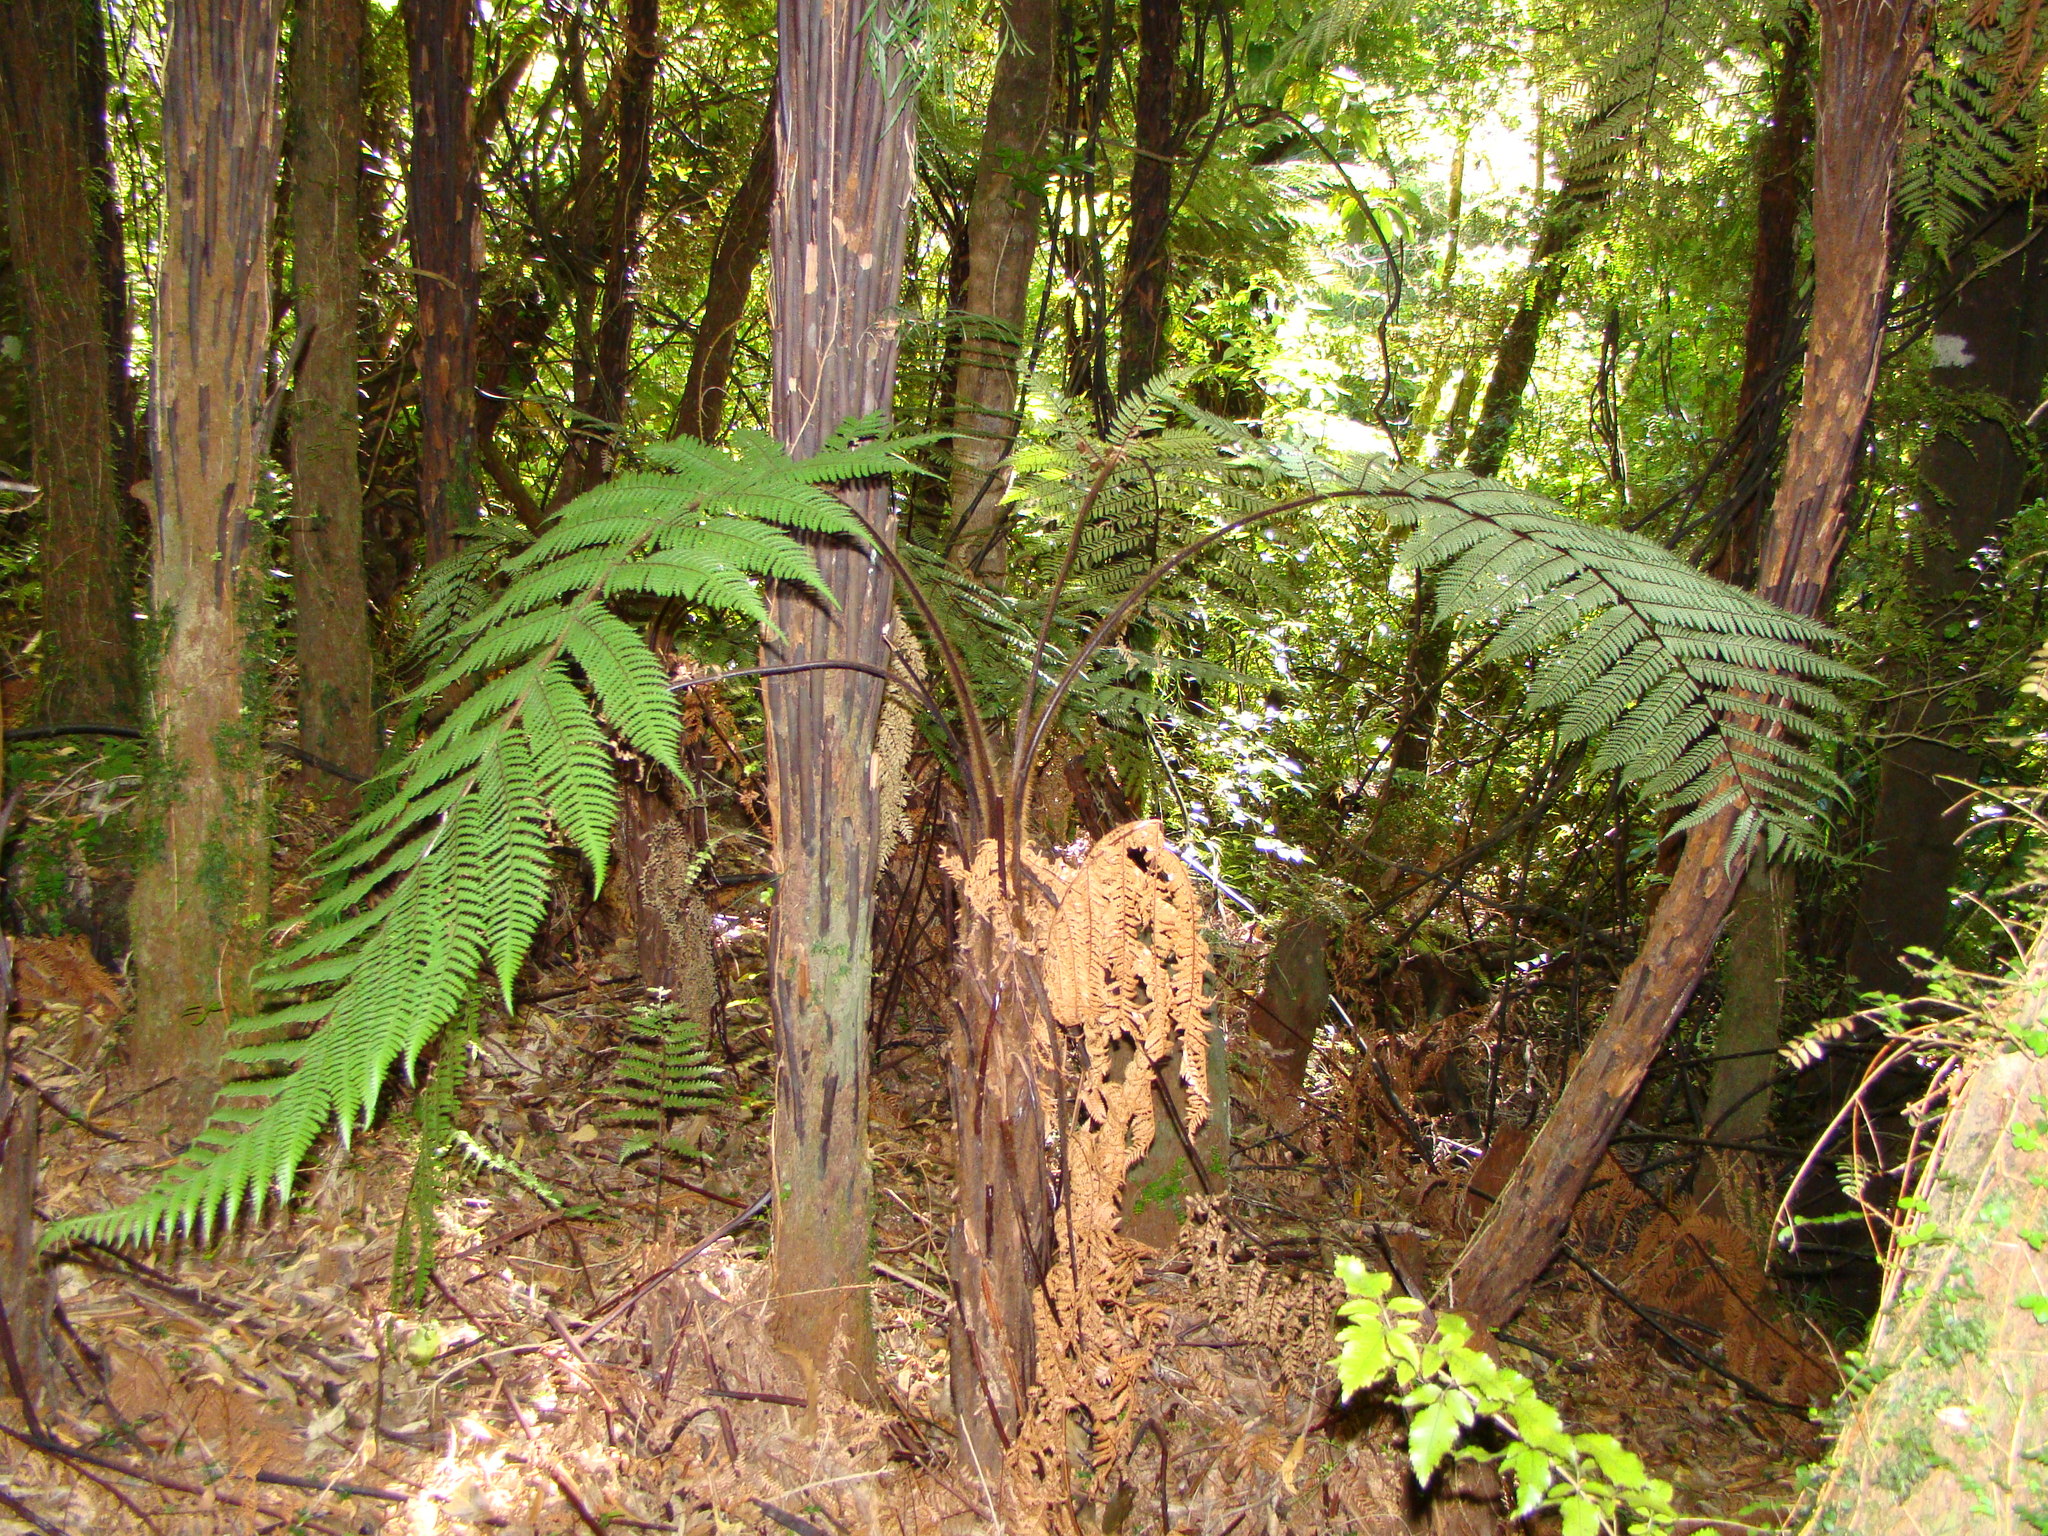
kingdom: Plantae
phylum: Tracheophyta
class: Polypodiopsida
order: Cyatheales
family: Dicksoniaceae
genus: Dicksonia
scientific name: Dicksonia squarrosa
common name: Hard treefern
